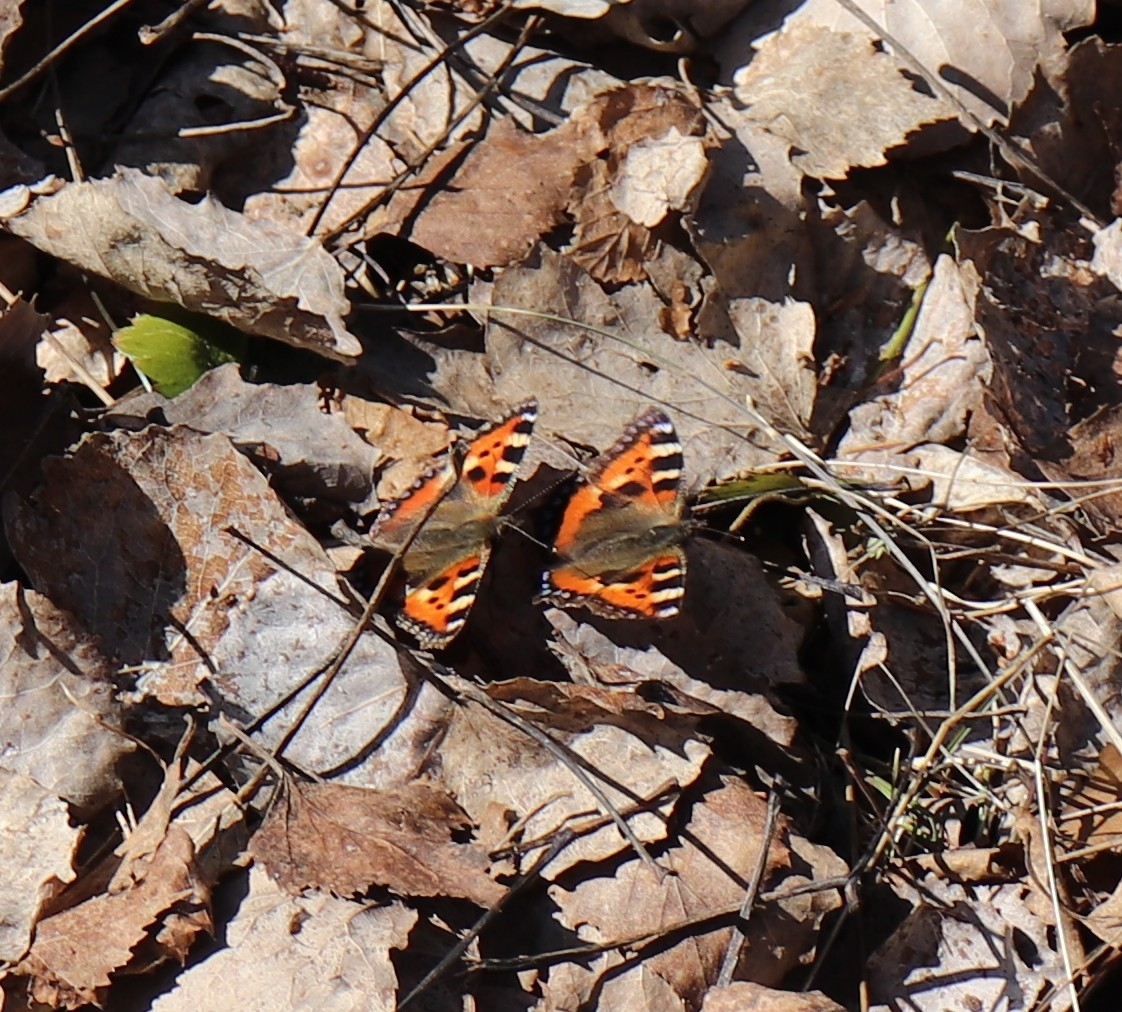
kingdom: Animalia
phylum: Arthropoda
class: Insecta
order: Lepidoptera
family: Nymphalidae
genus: Aglais
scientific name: Aglais urticae
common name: Small tortoiseshell
